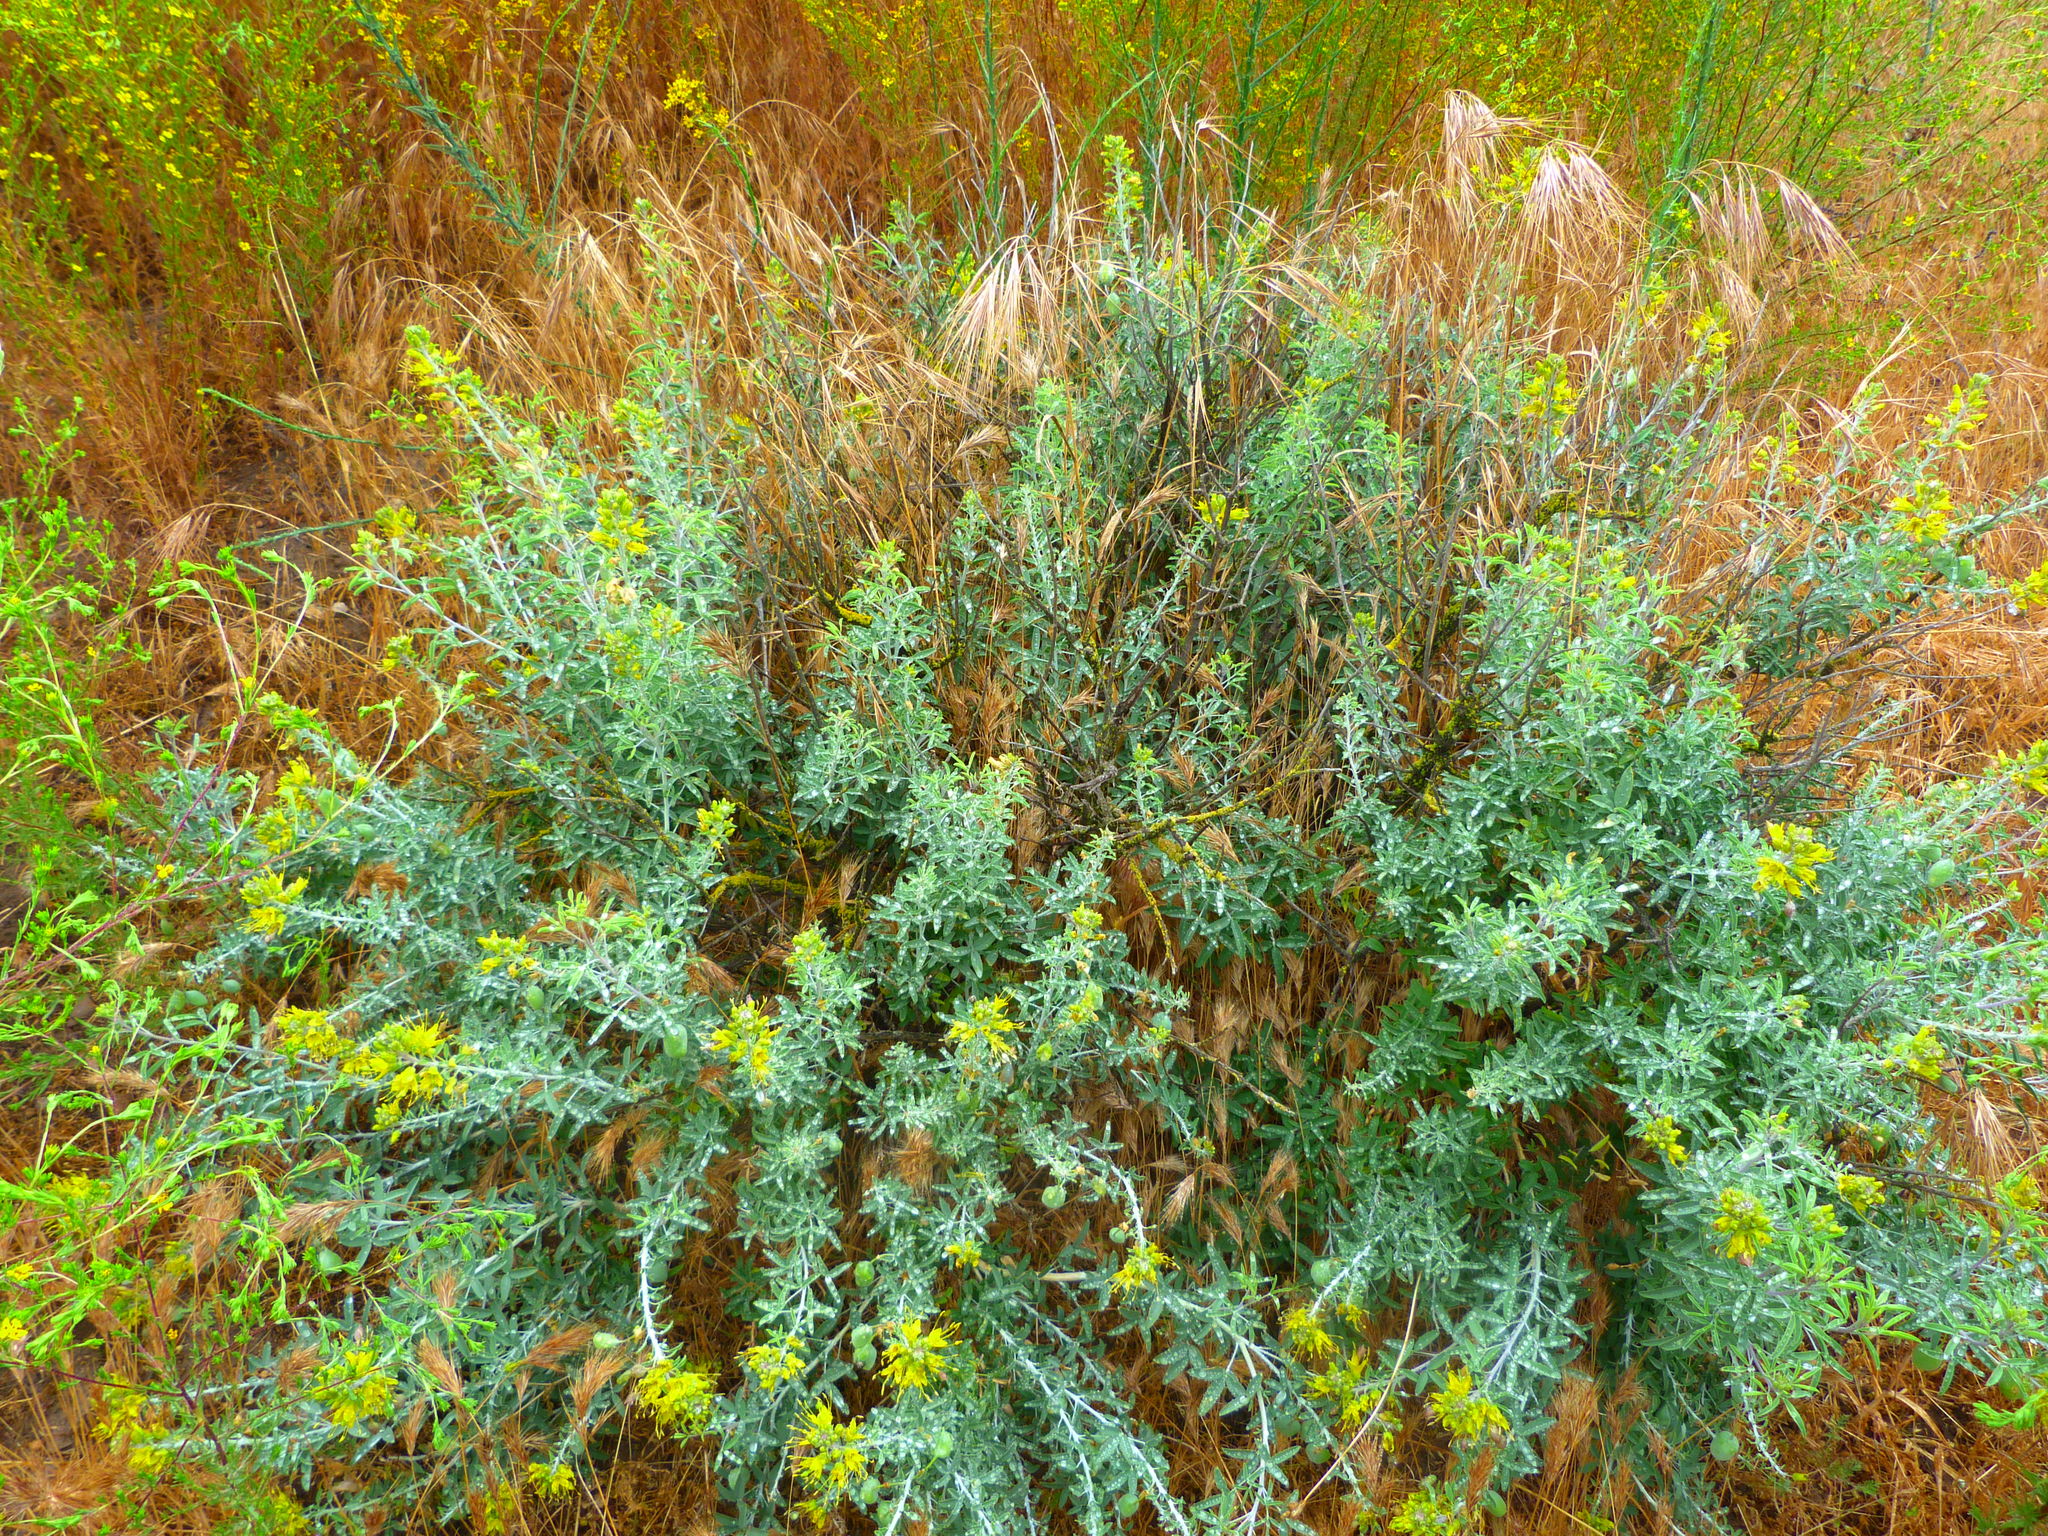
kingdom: Plantae
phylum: Tracheophyta
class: Magnoliopsida
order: Brassicales
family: Cleomaceae
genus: Cleomella
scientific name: Cleomella arborea
